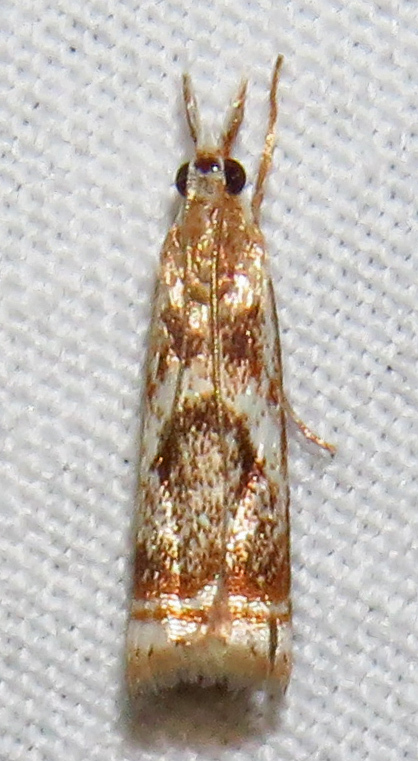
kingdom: Animalia
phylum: Arthropoda
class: Insecta
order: Lepidoptera
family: Crambidae
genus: Microcrambus
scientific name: Microcrambus elegans
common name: Elegant grass-veneer
